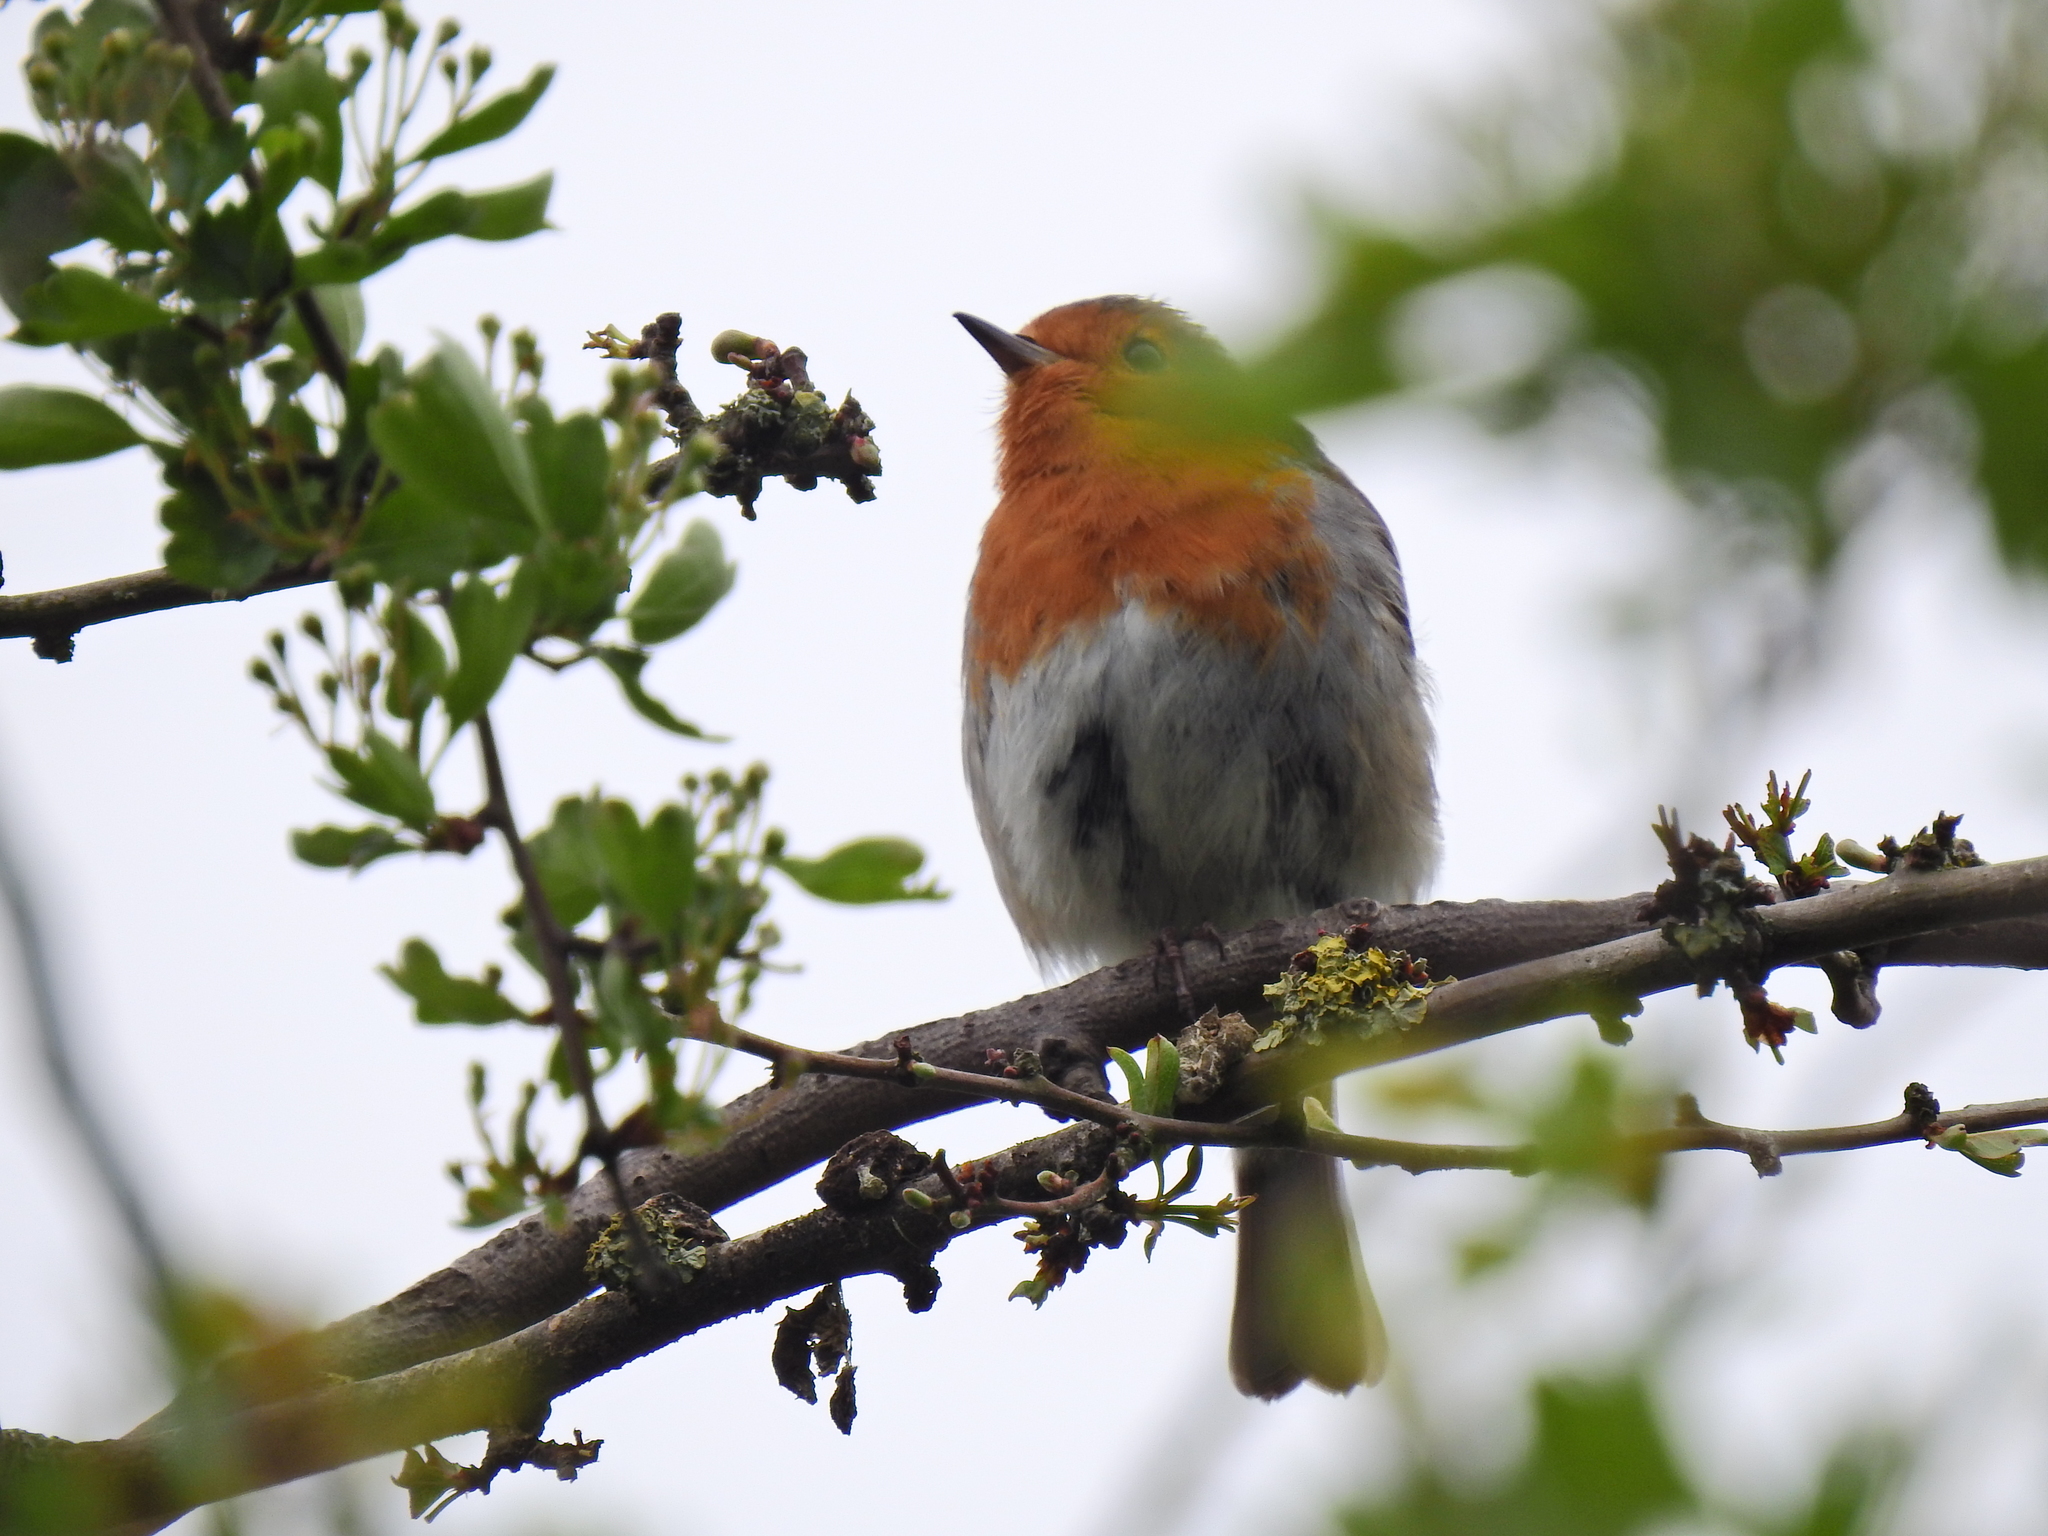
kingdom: Animalia
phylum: Chordata
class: Aves
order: Passeriformes
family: Muscicapidae
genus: Erithacus
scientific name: Erithacus rubecula
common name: European robin
